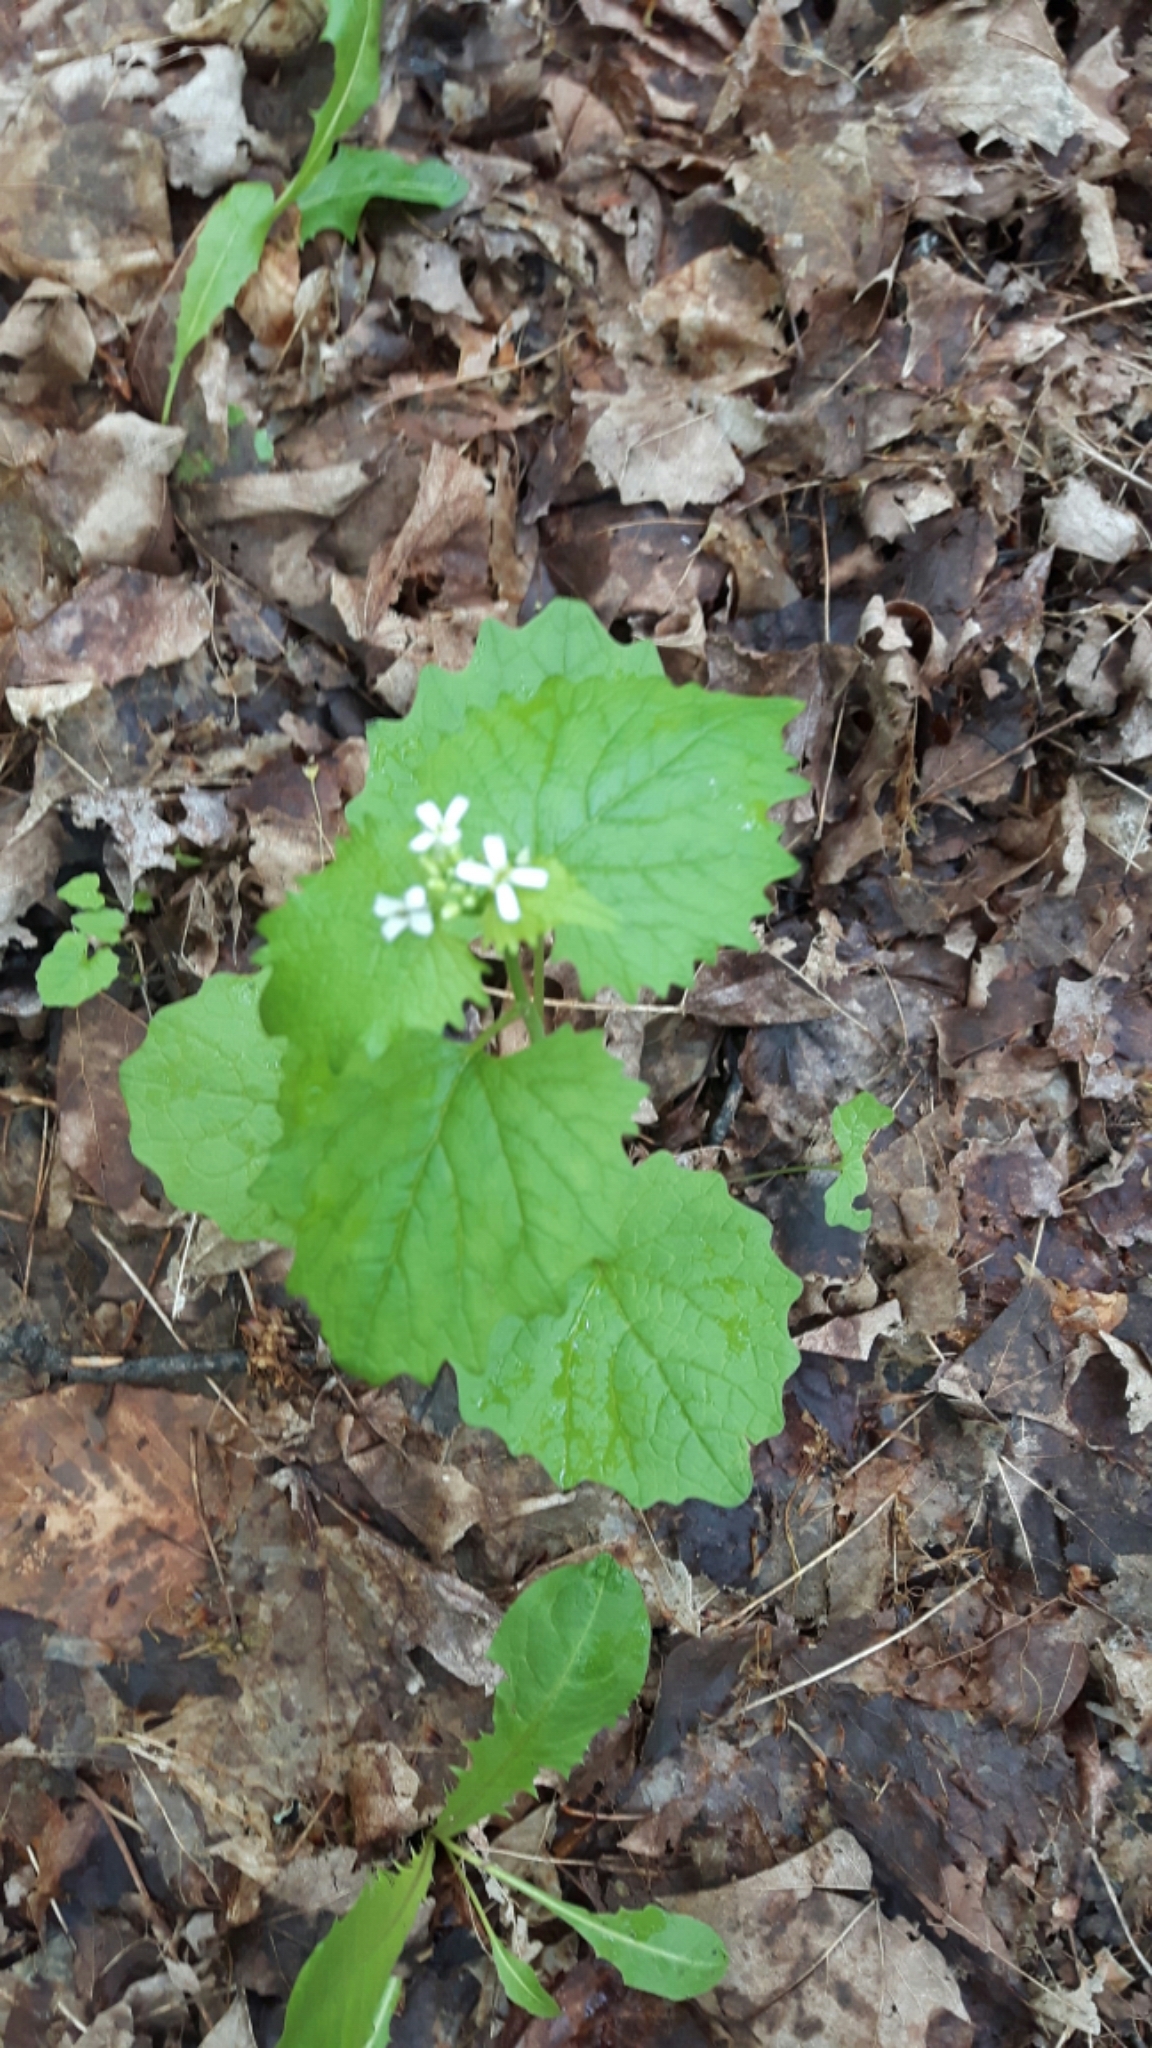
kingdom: Plantae
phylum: Tracheophyta
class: Magnoliopsida
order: Brassicales
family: Brassicaceae
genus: Alliaria
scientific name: Alliaria petiolata
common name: Garlic mustard
